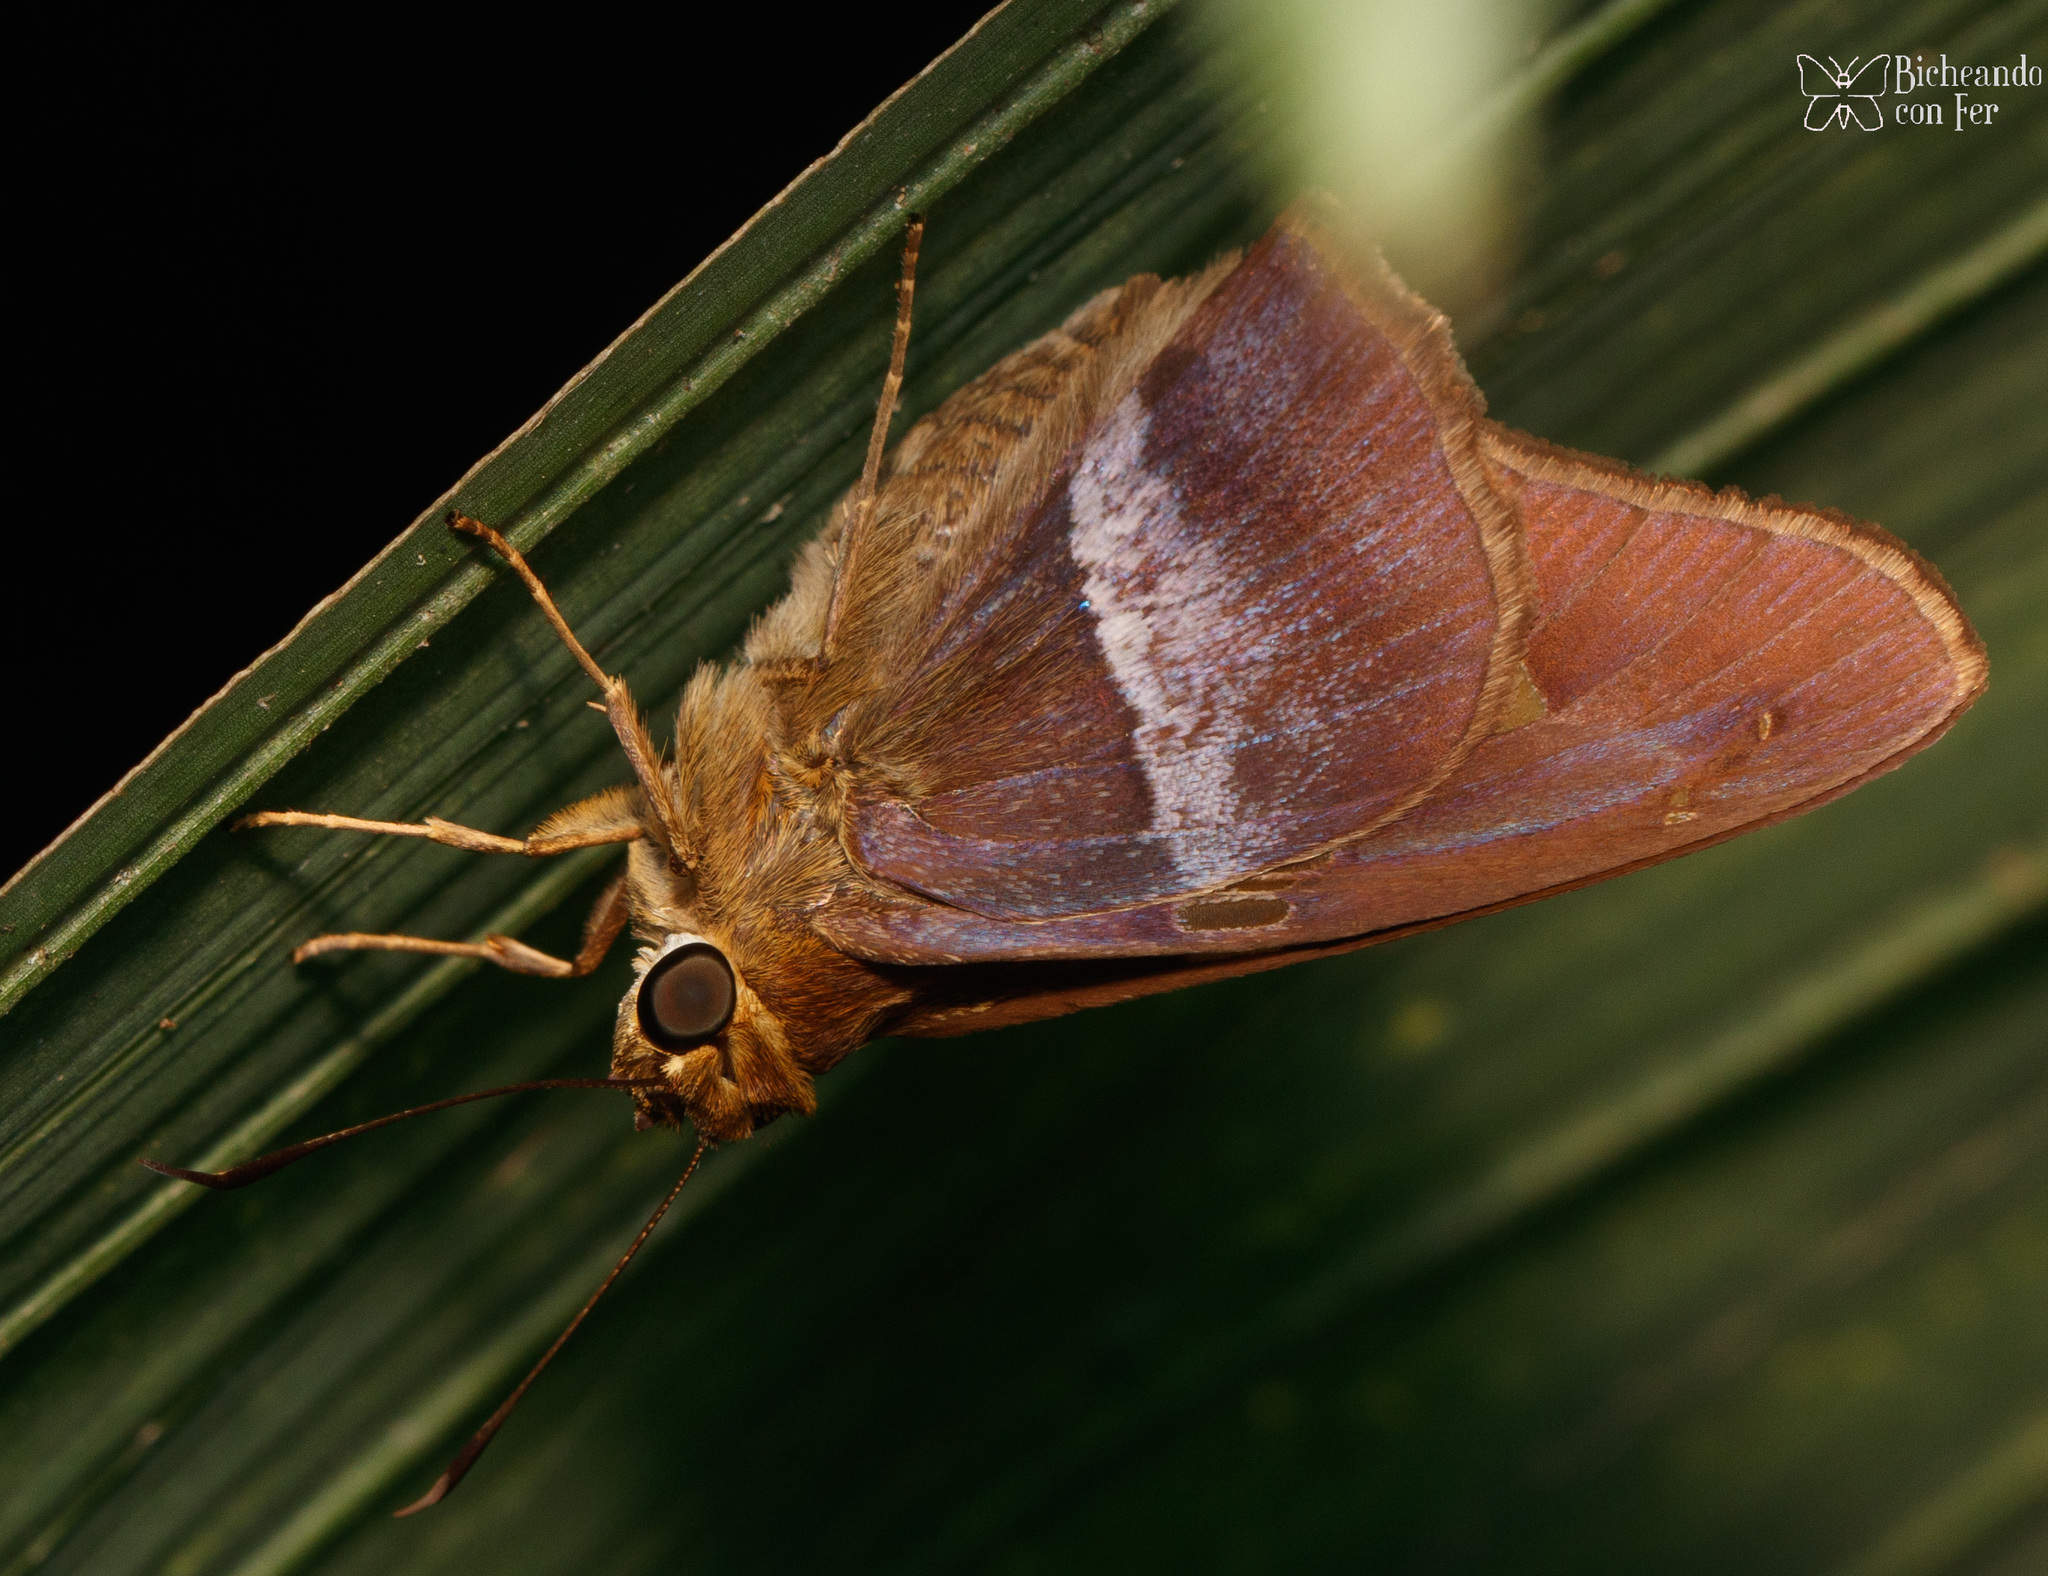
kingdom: Animalia
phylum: Arthropoda
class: Insecta
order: Lepidoptera
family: Hesperiidae
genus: Aguna
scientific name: Aguna asander
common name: Gold-spotted aguna
